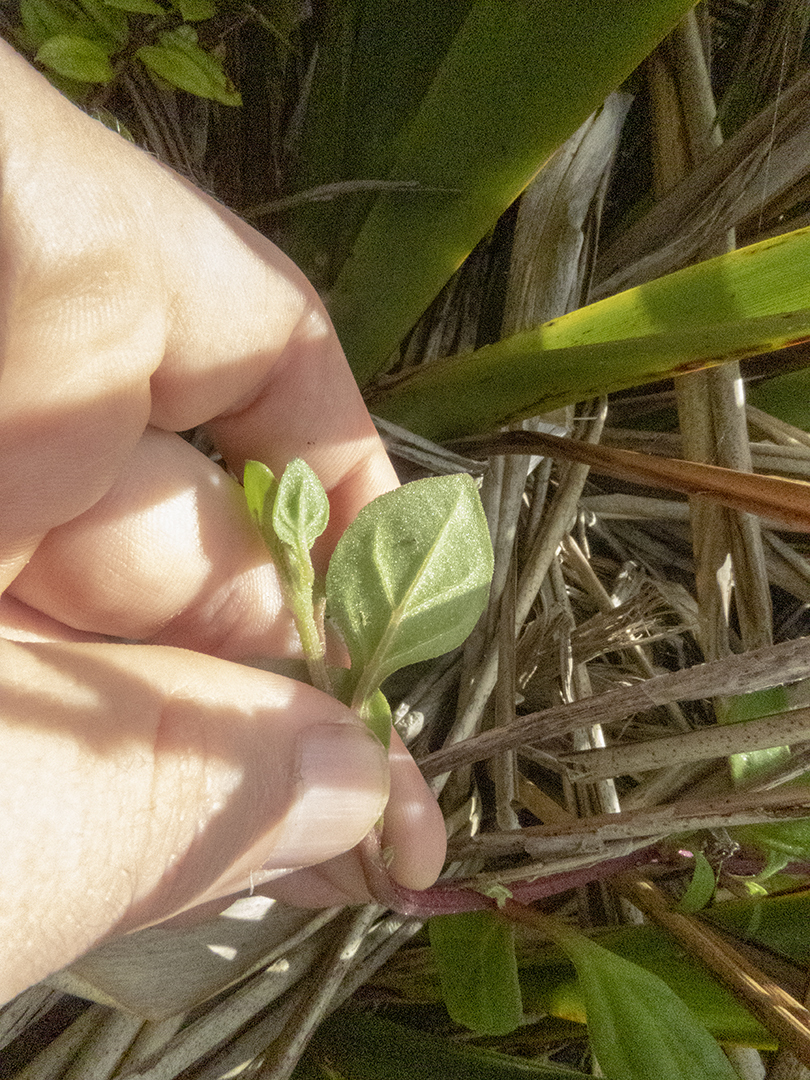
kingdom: Plantae
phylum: Tracheophyta
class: Magnoliopsida
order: Caryophyllales
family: Aizoaceae
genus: Tetragonia
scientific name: Tetragonia implexicoma
